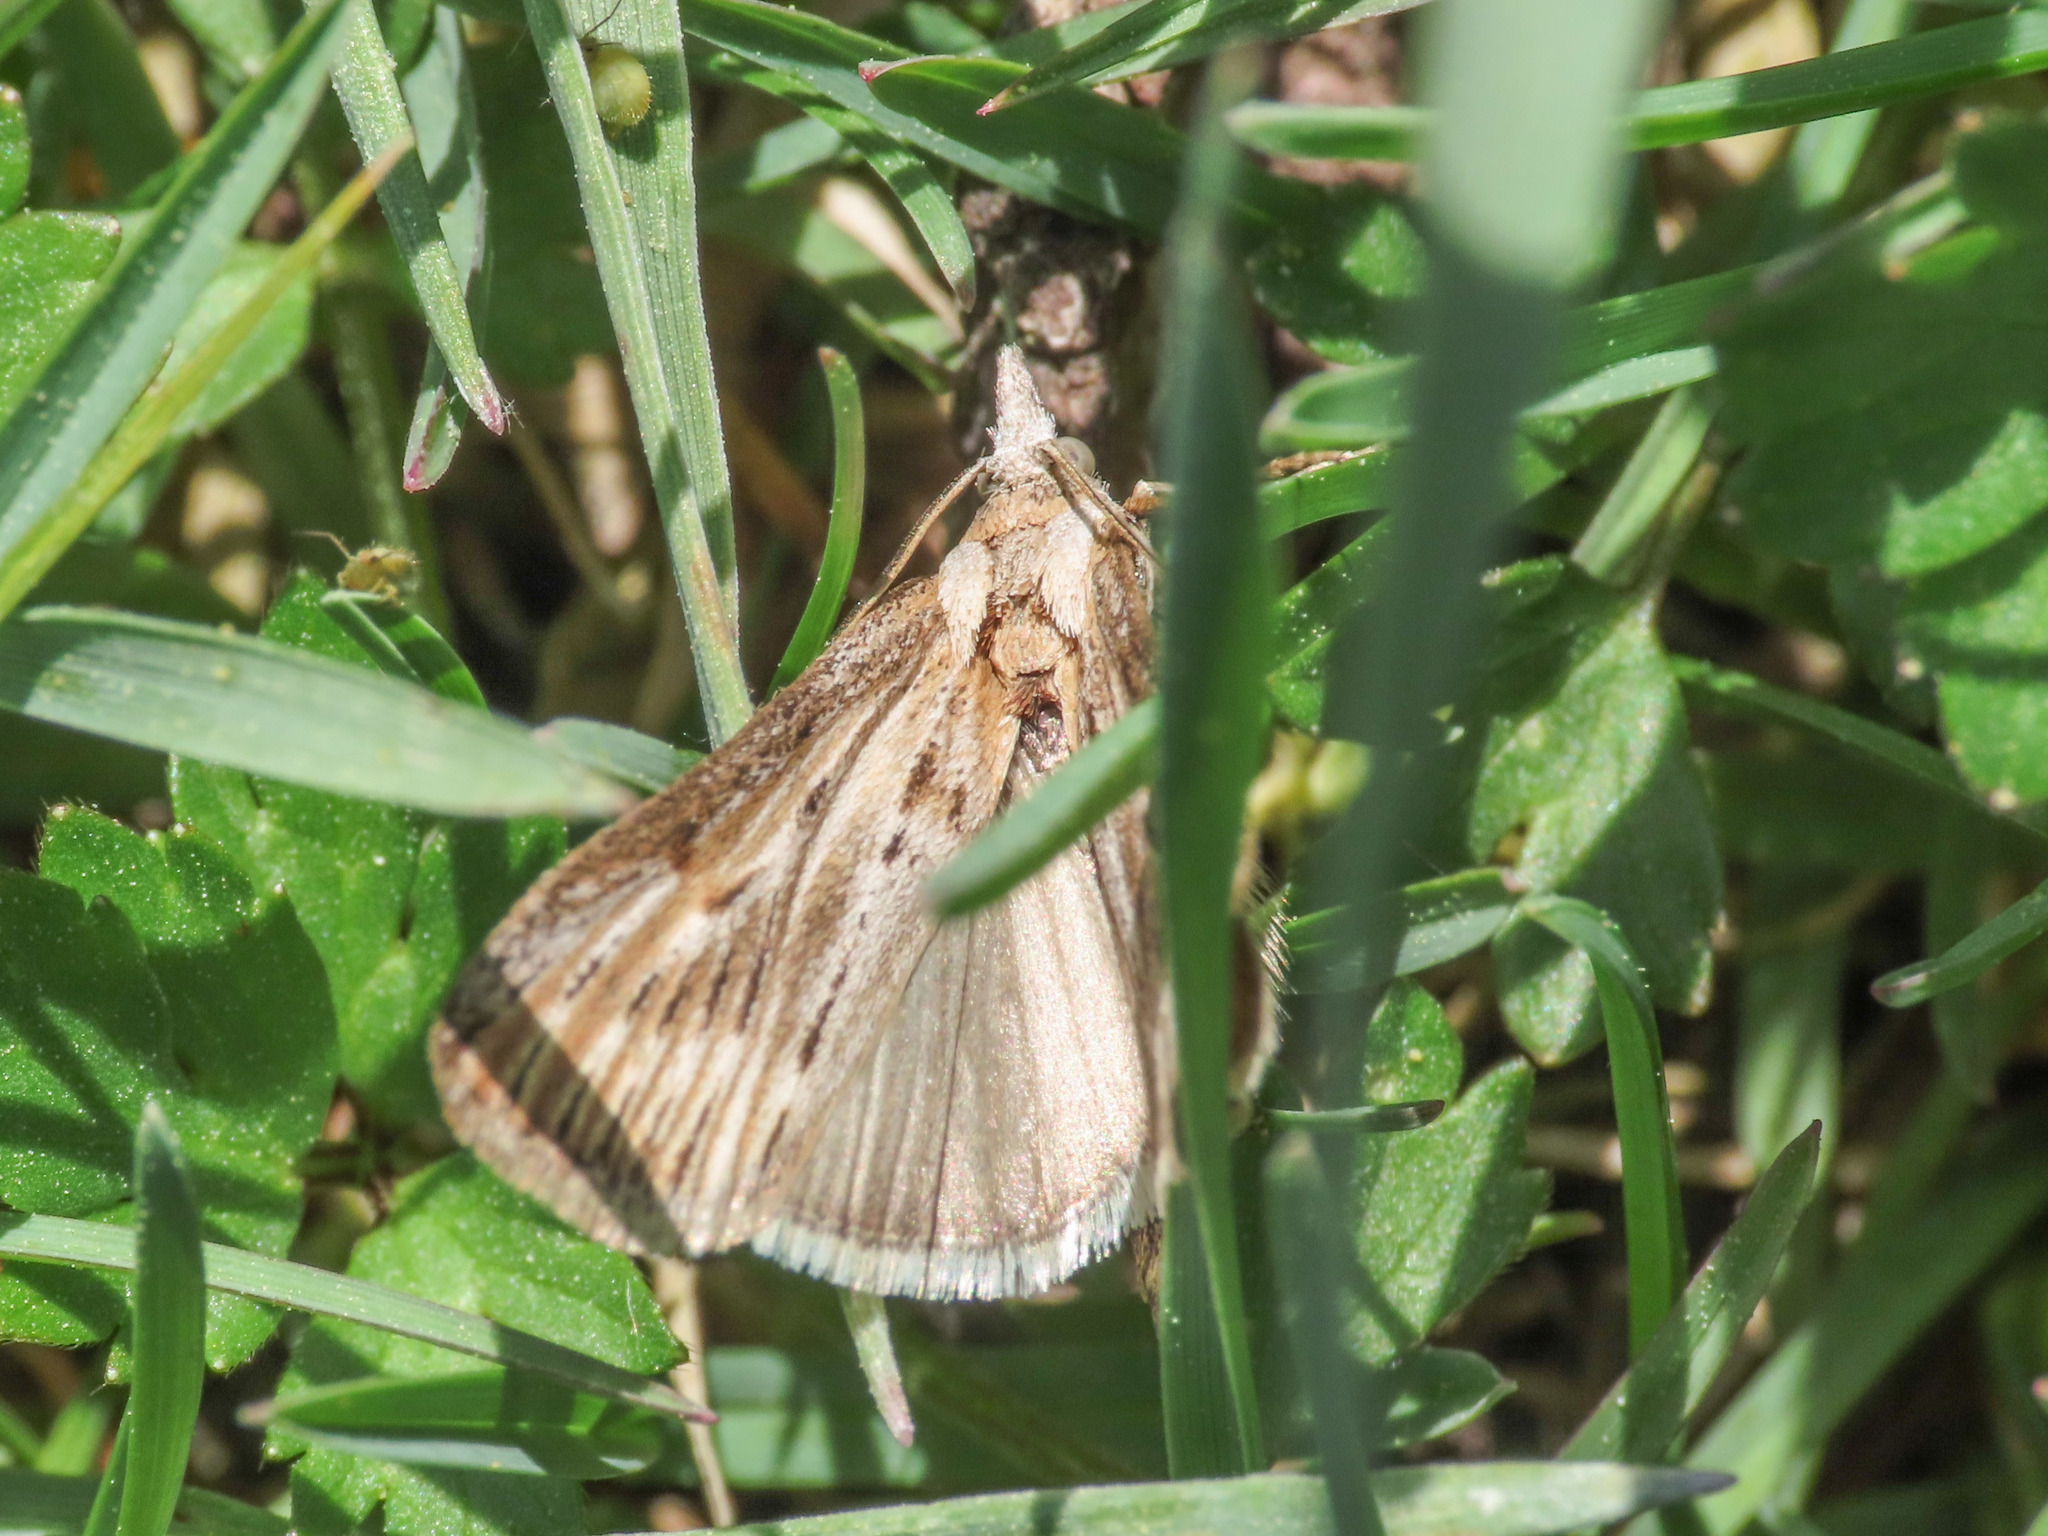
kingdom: Animalia
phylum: Arthropoda
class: Insecta
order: Lepidoptera
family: Pyralidae
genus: Megasis
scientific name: Megasis prodomella
